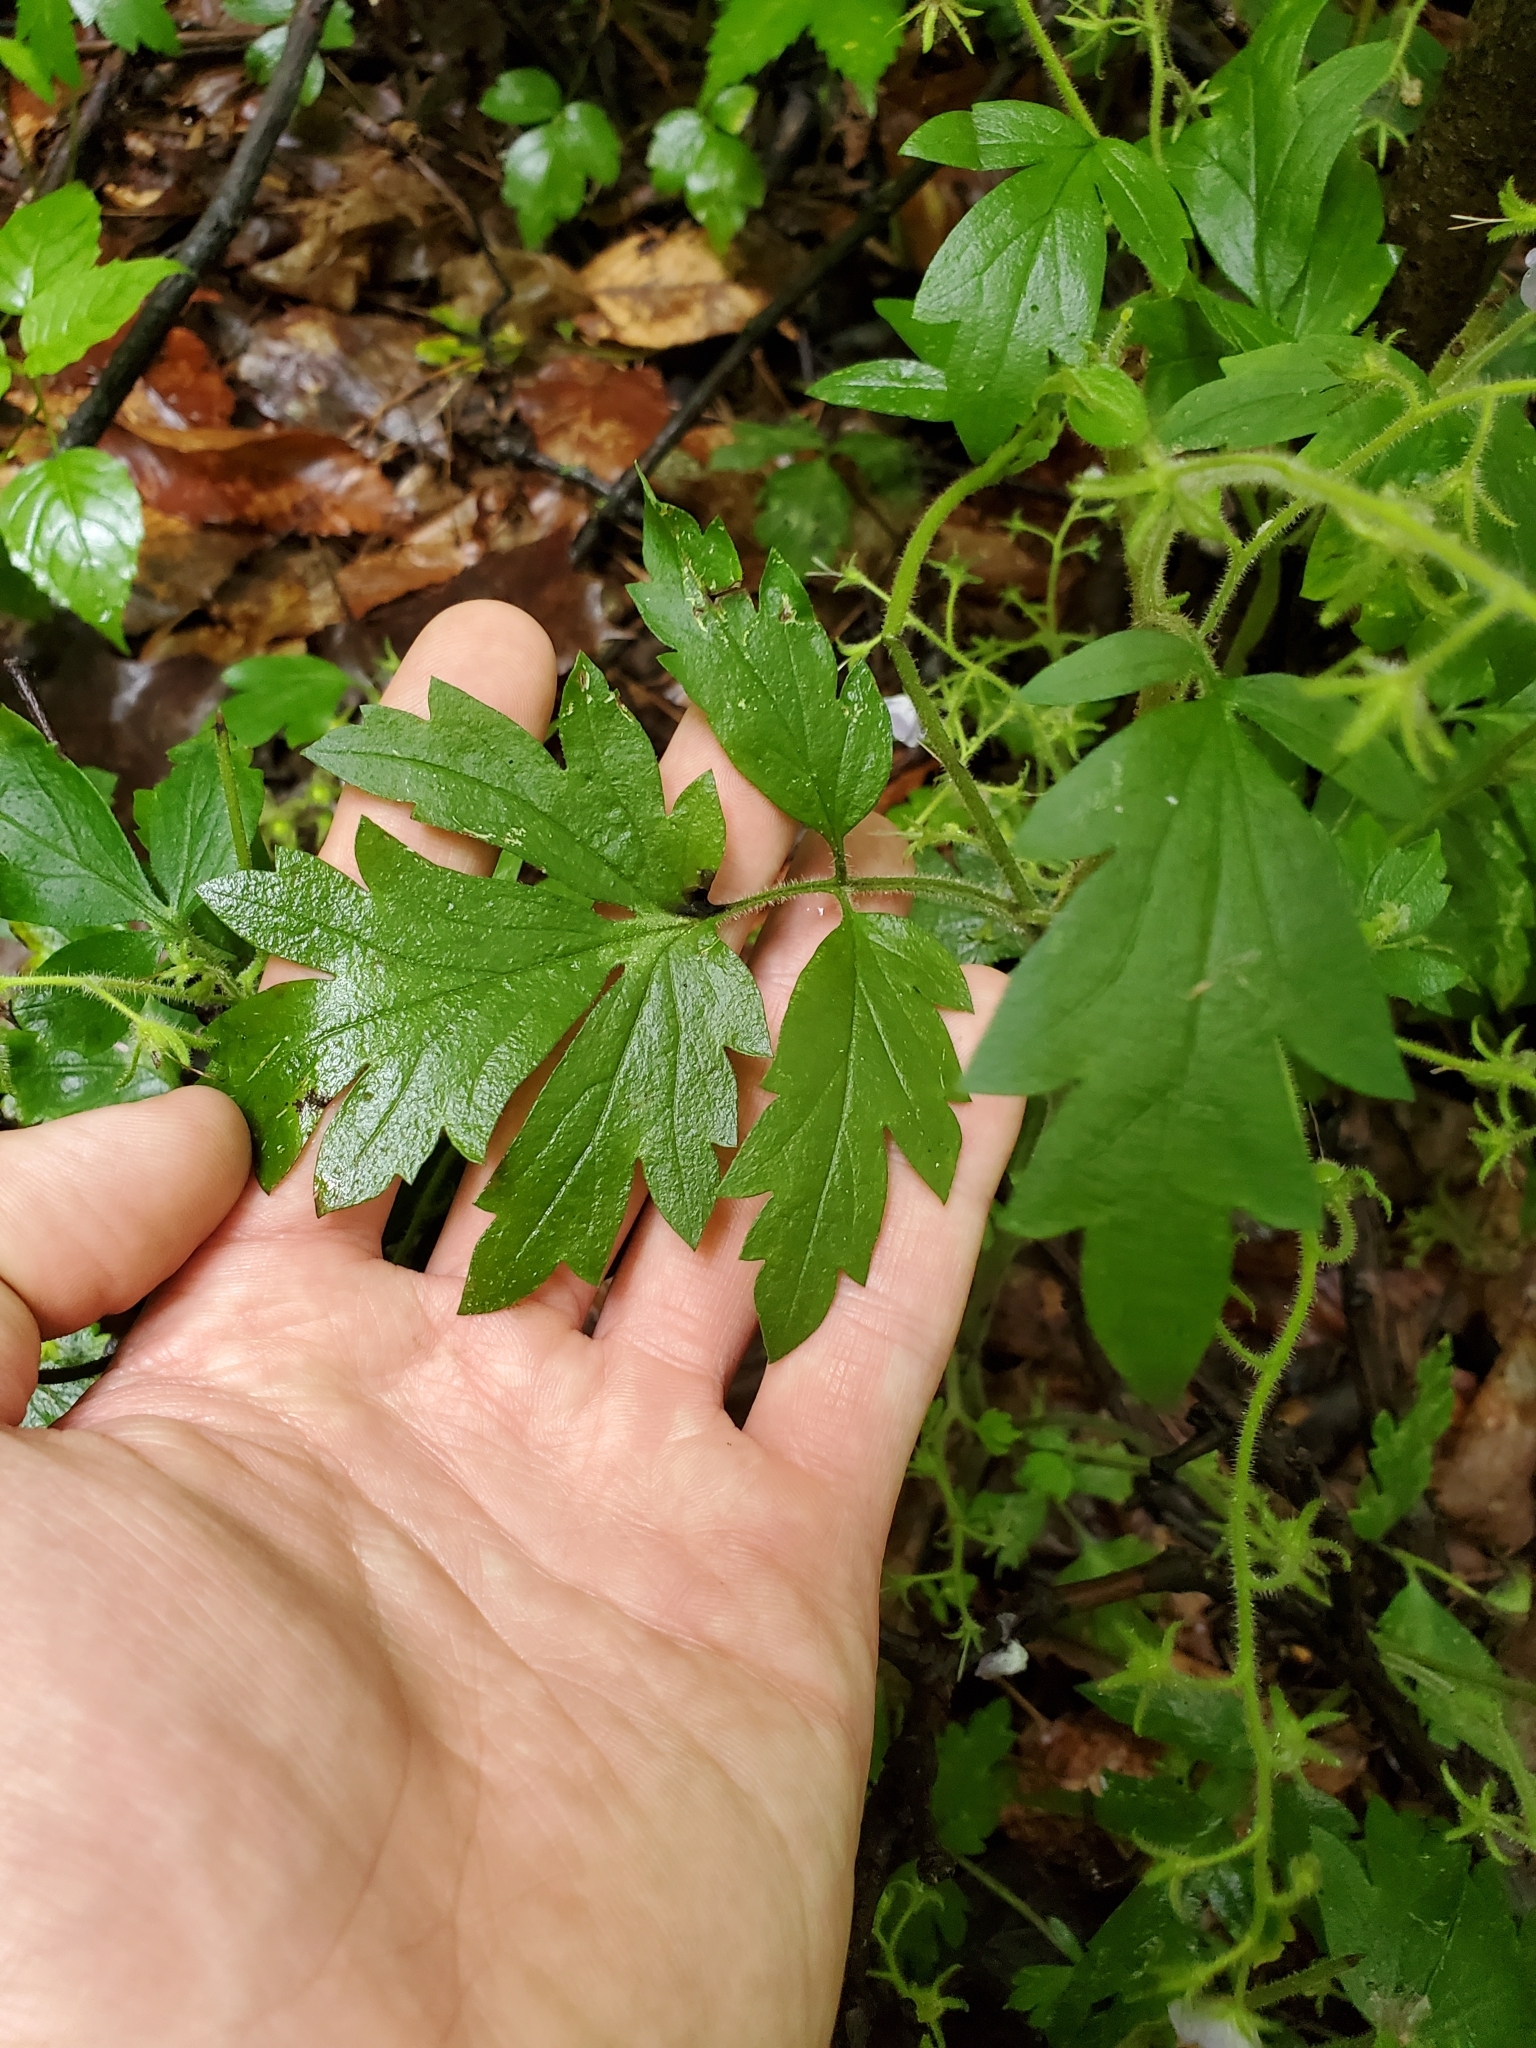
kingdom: Plantae
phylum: Tracheophyta
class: Magnoliopsida
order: Boraginales
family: Hydrophyllaceae
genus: Phacelia
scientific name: Phacelia bipinnatifida
